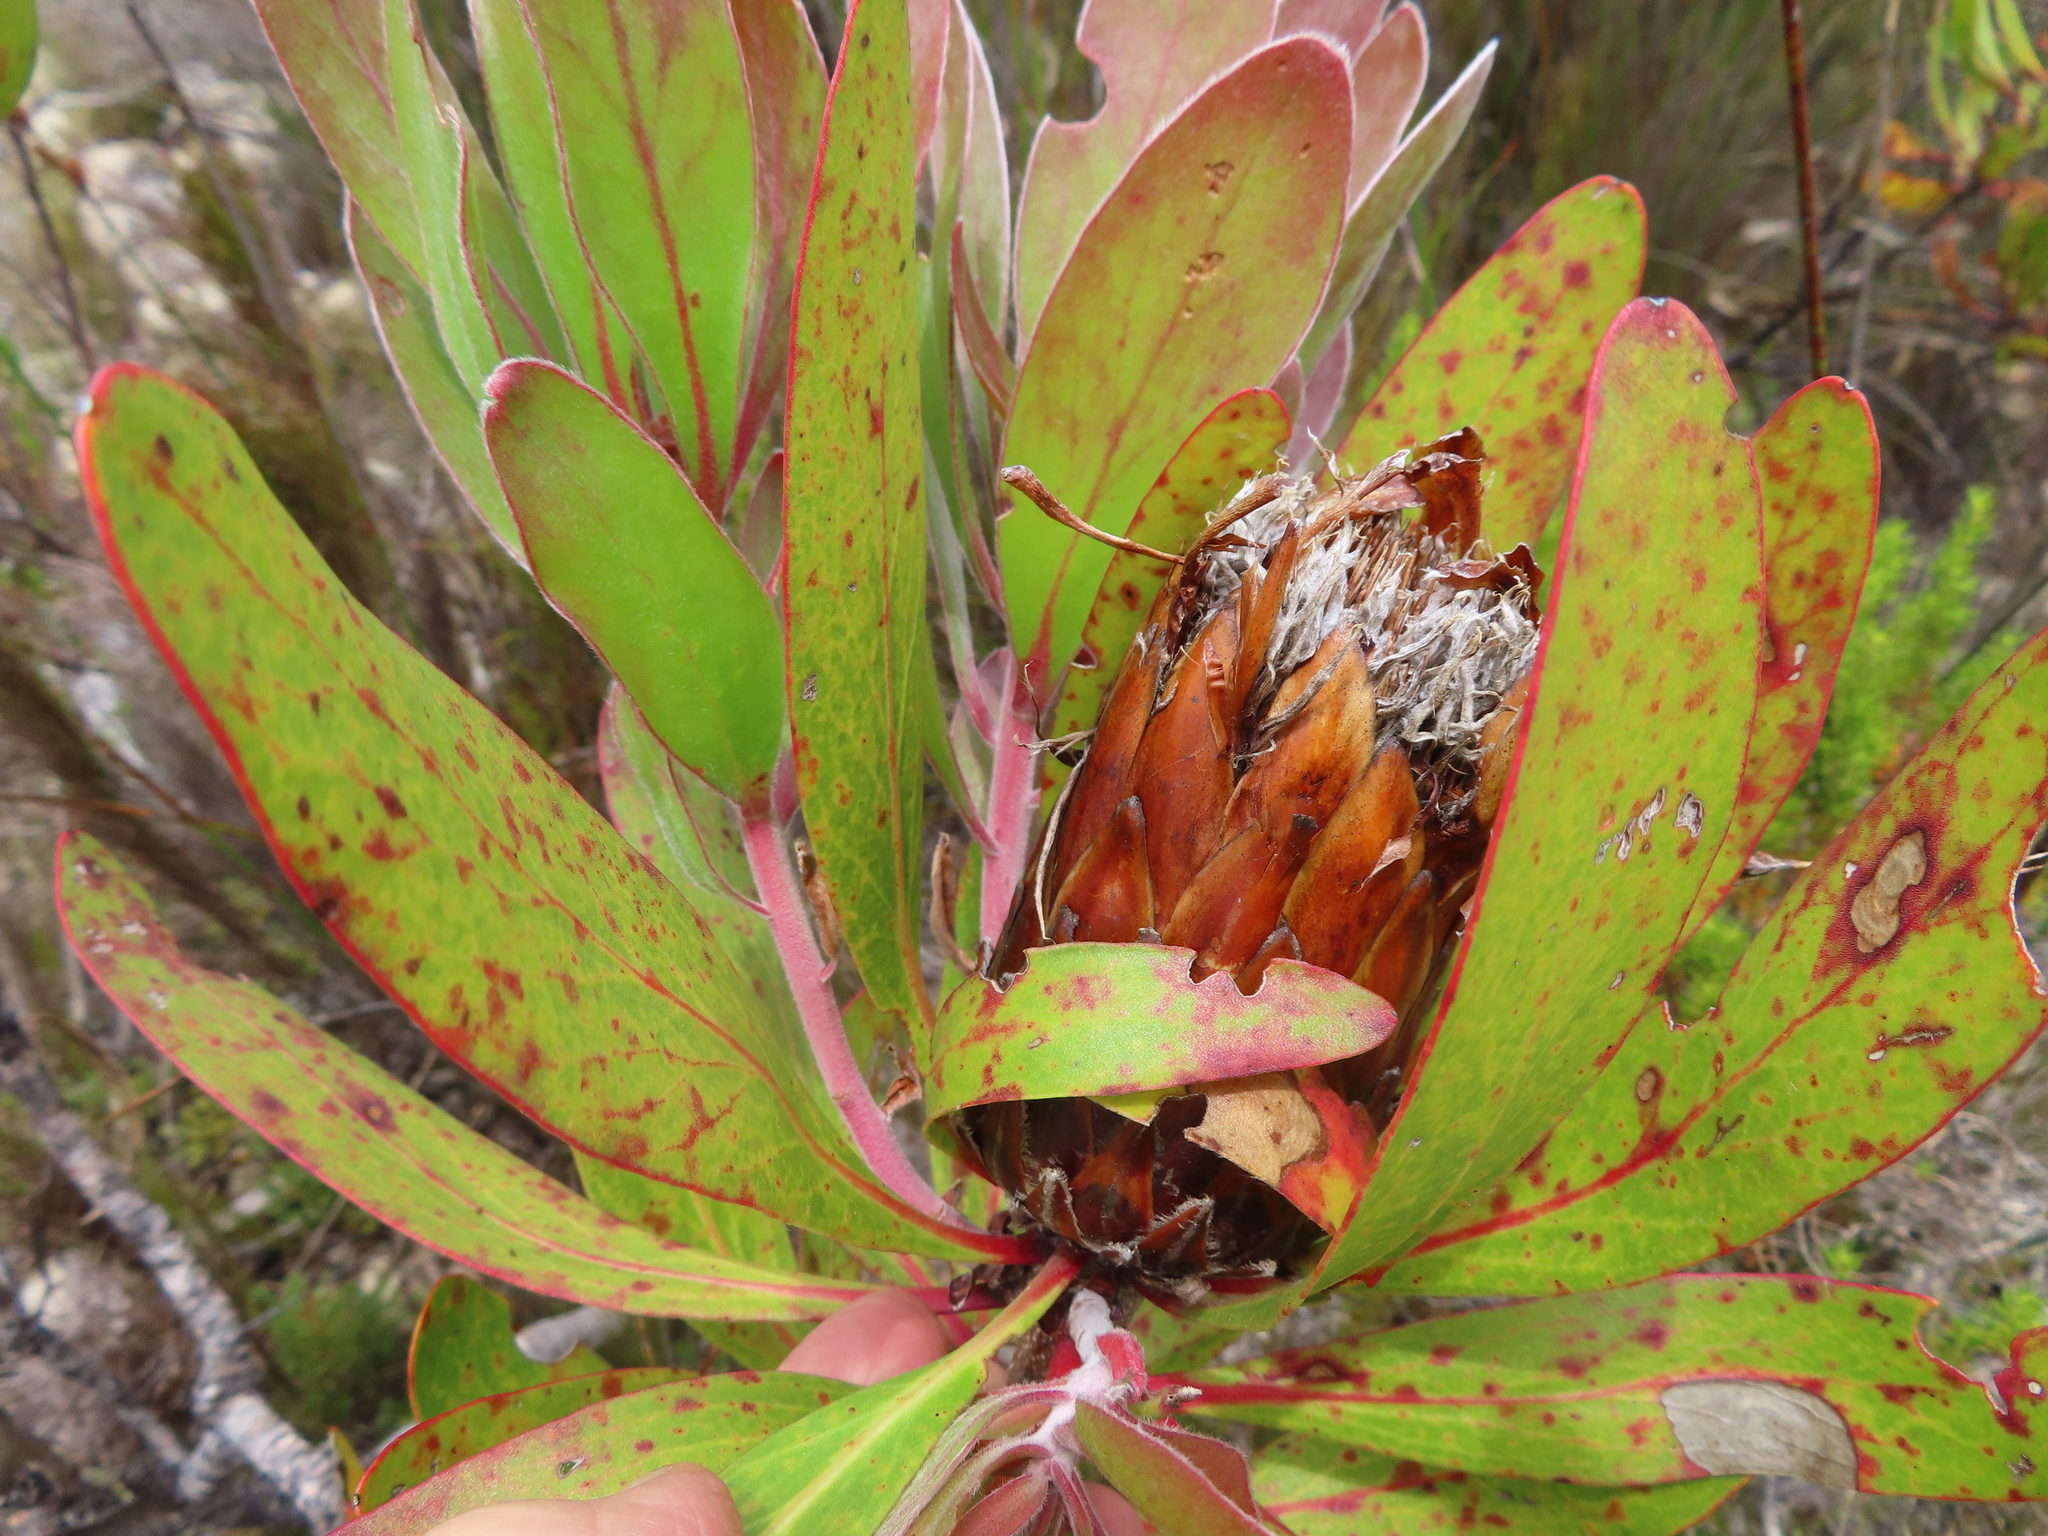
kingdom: Plantae
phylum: Tracheophyta
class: Magnoliopsida
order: Proteales
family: Proteaceae
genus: Protea
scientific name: Protea obtusifolia
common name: Bredasdorp sugarbush
